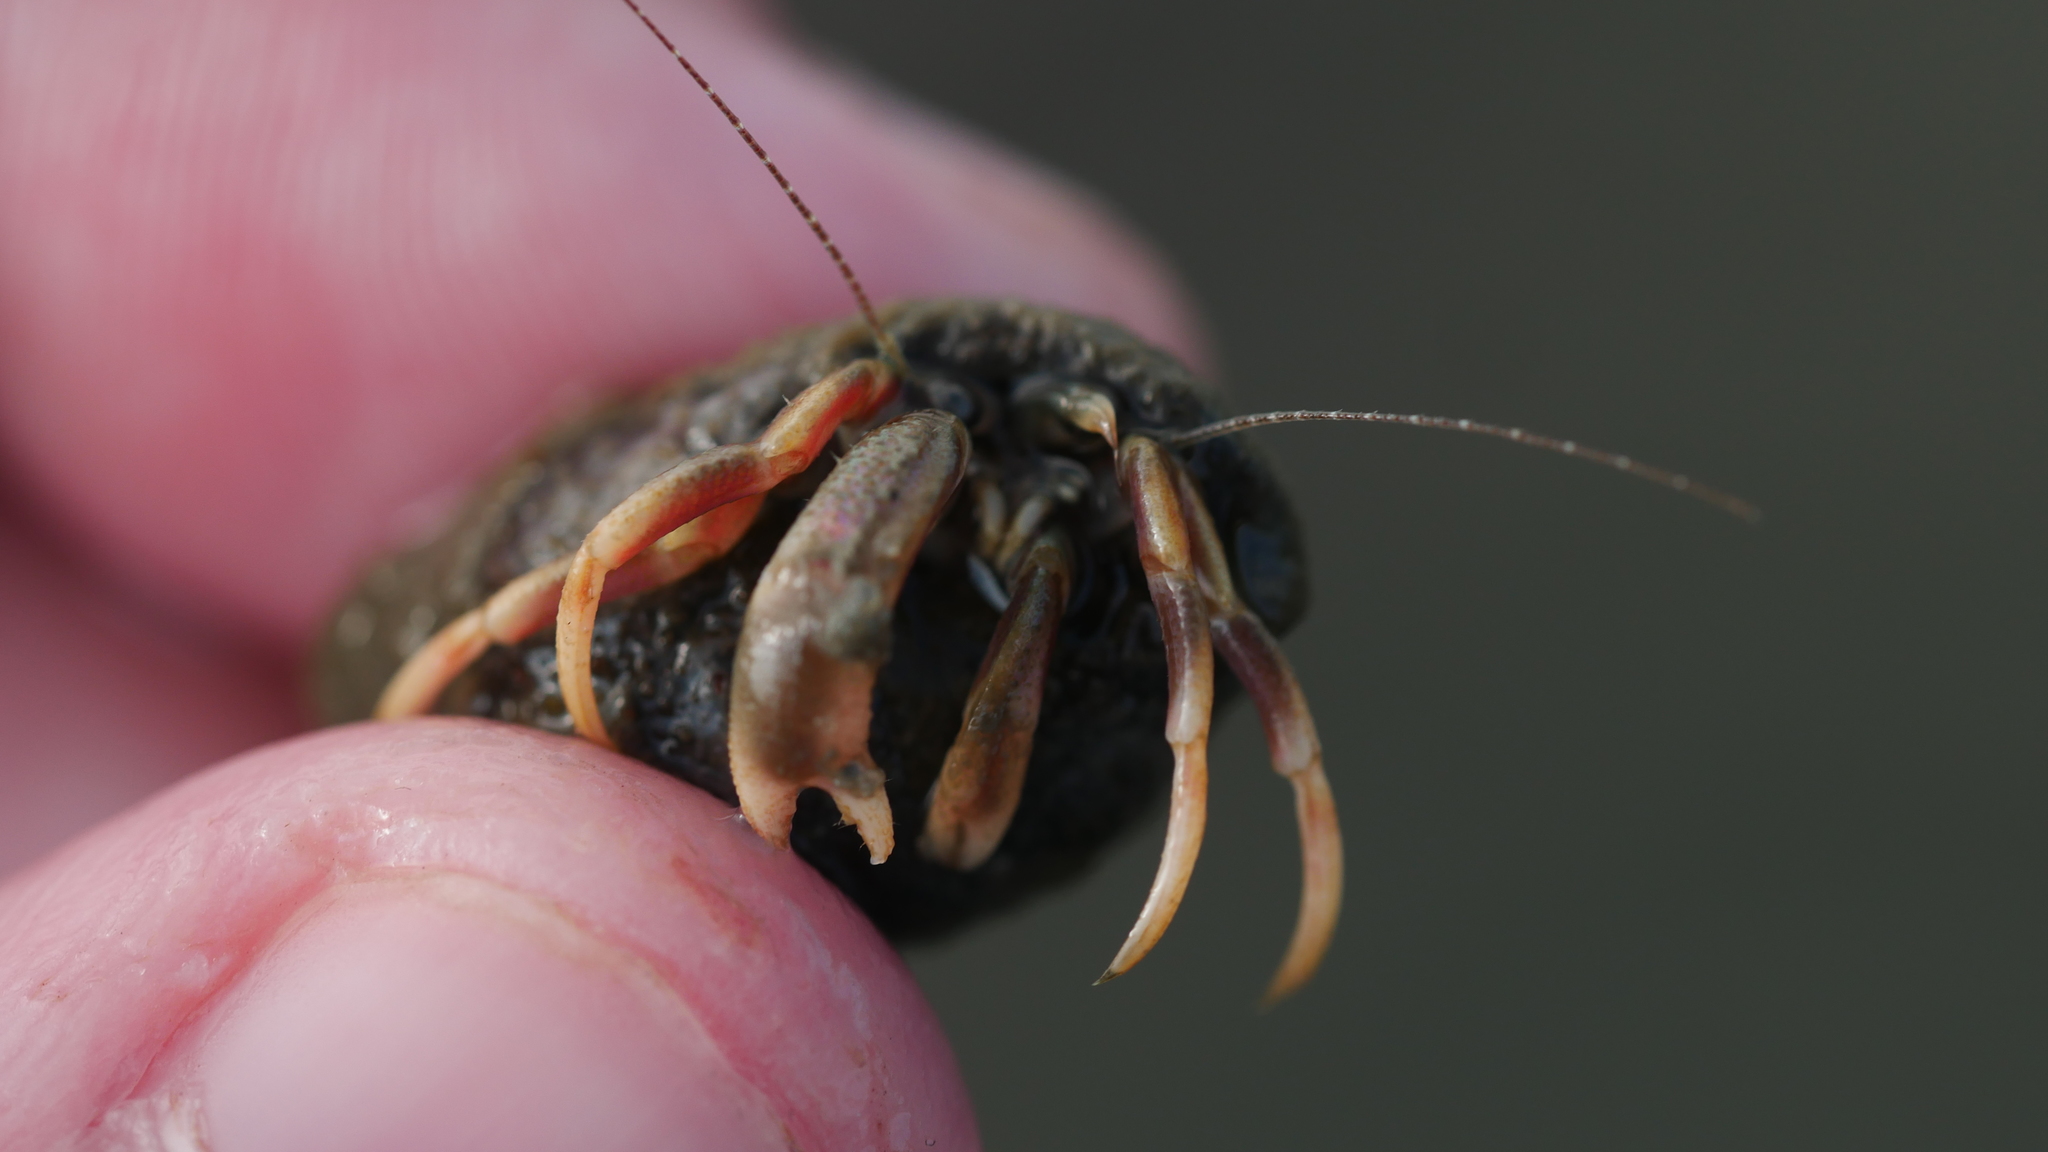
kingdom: Animalia
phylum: Arthropoda
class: Malacostraca
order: Decapoda
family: Paguridae
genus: Pagurus
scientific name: Pagurus longicarpus
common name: Long-armed hermit crab
